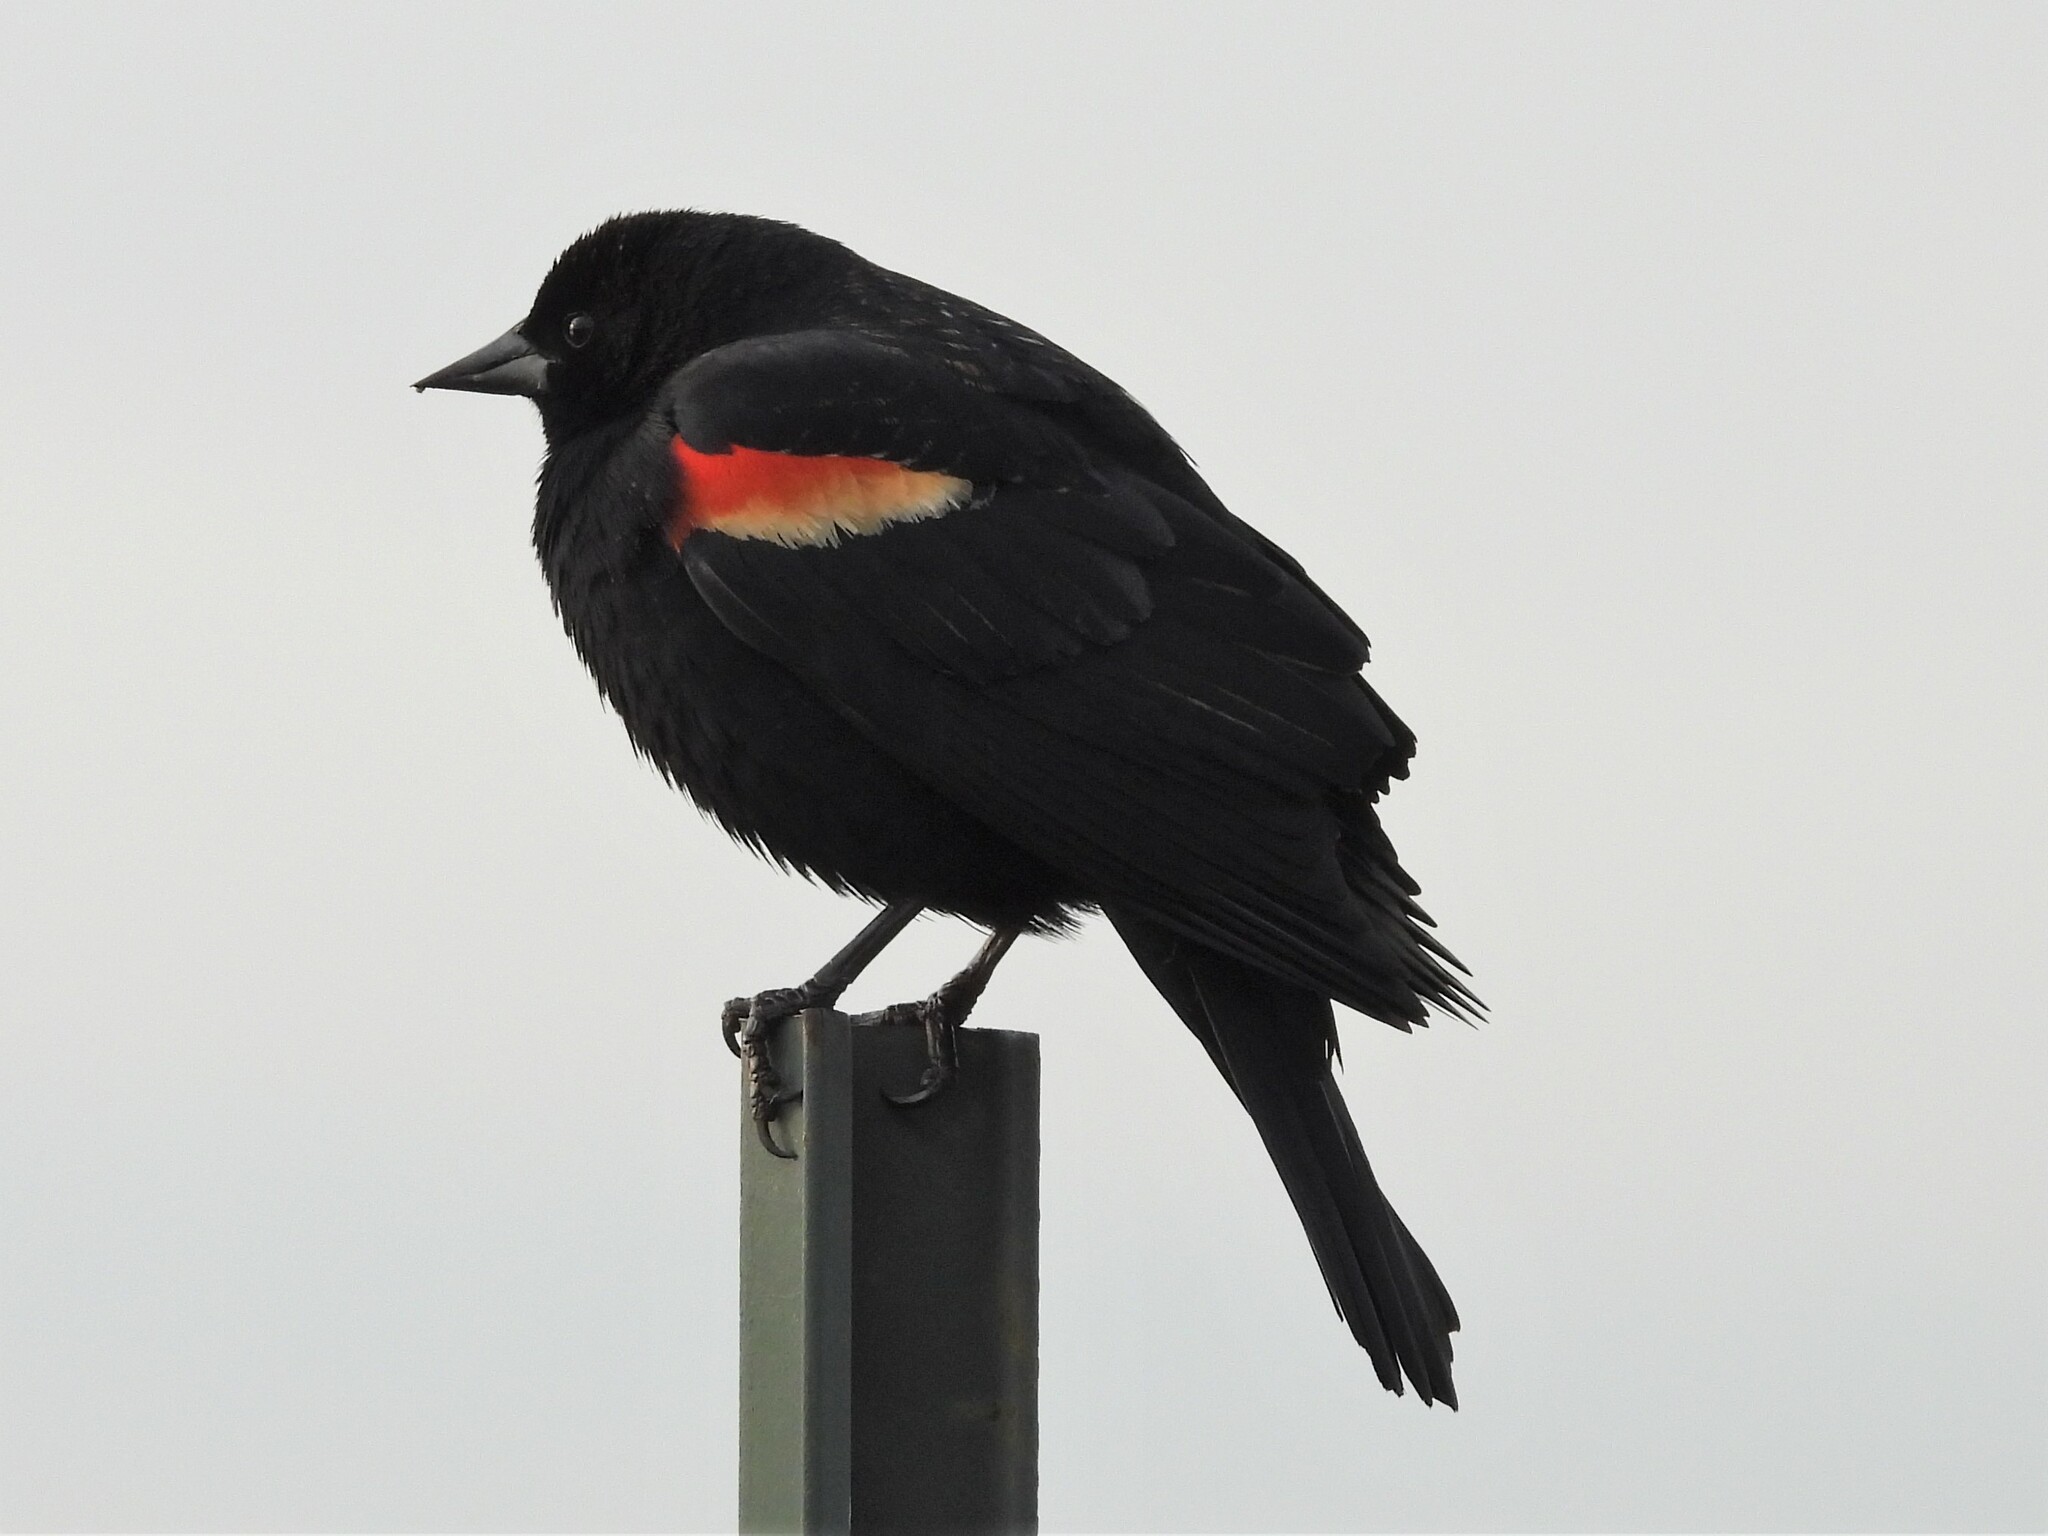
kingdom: Animalia
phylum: Chordata
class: Aves
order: Passeriformes
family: Icteridae
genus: Agelaius
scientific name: Agelaius phoeniceus
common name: Red-winged blackbird
